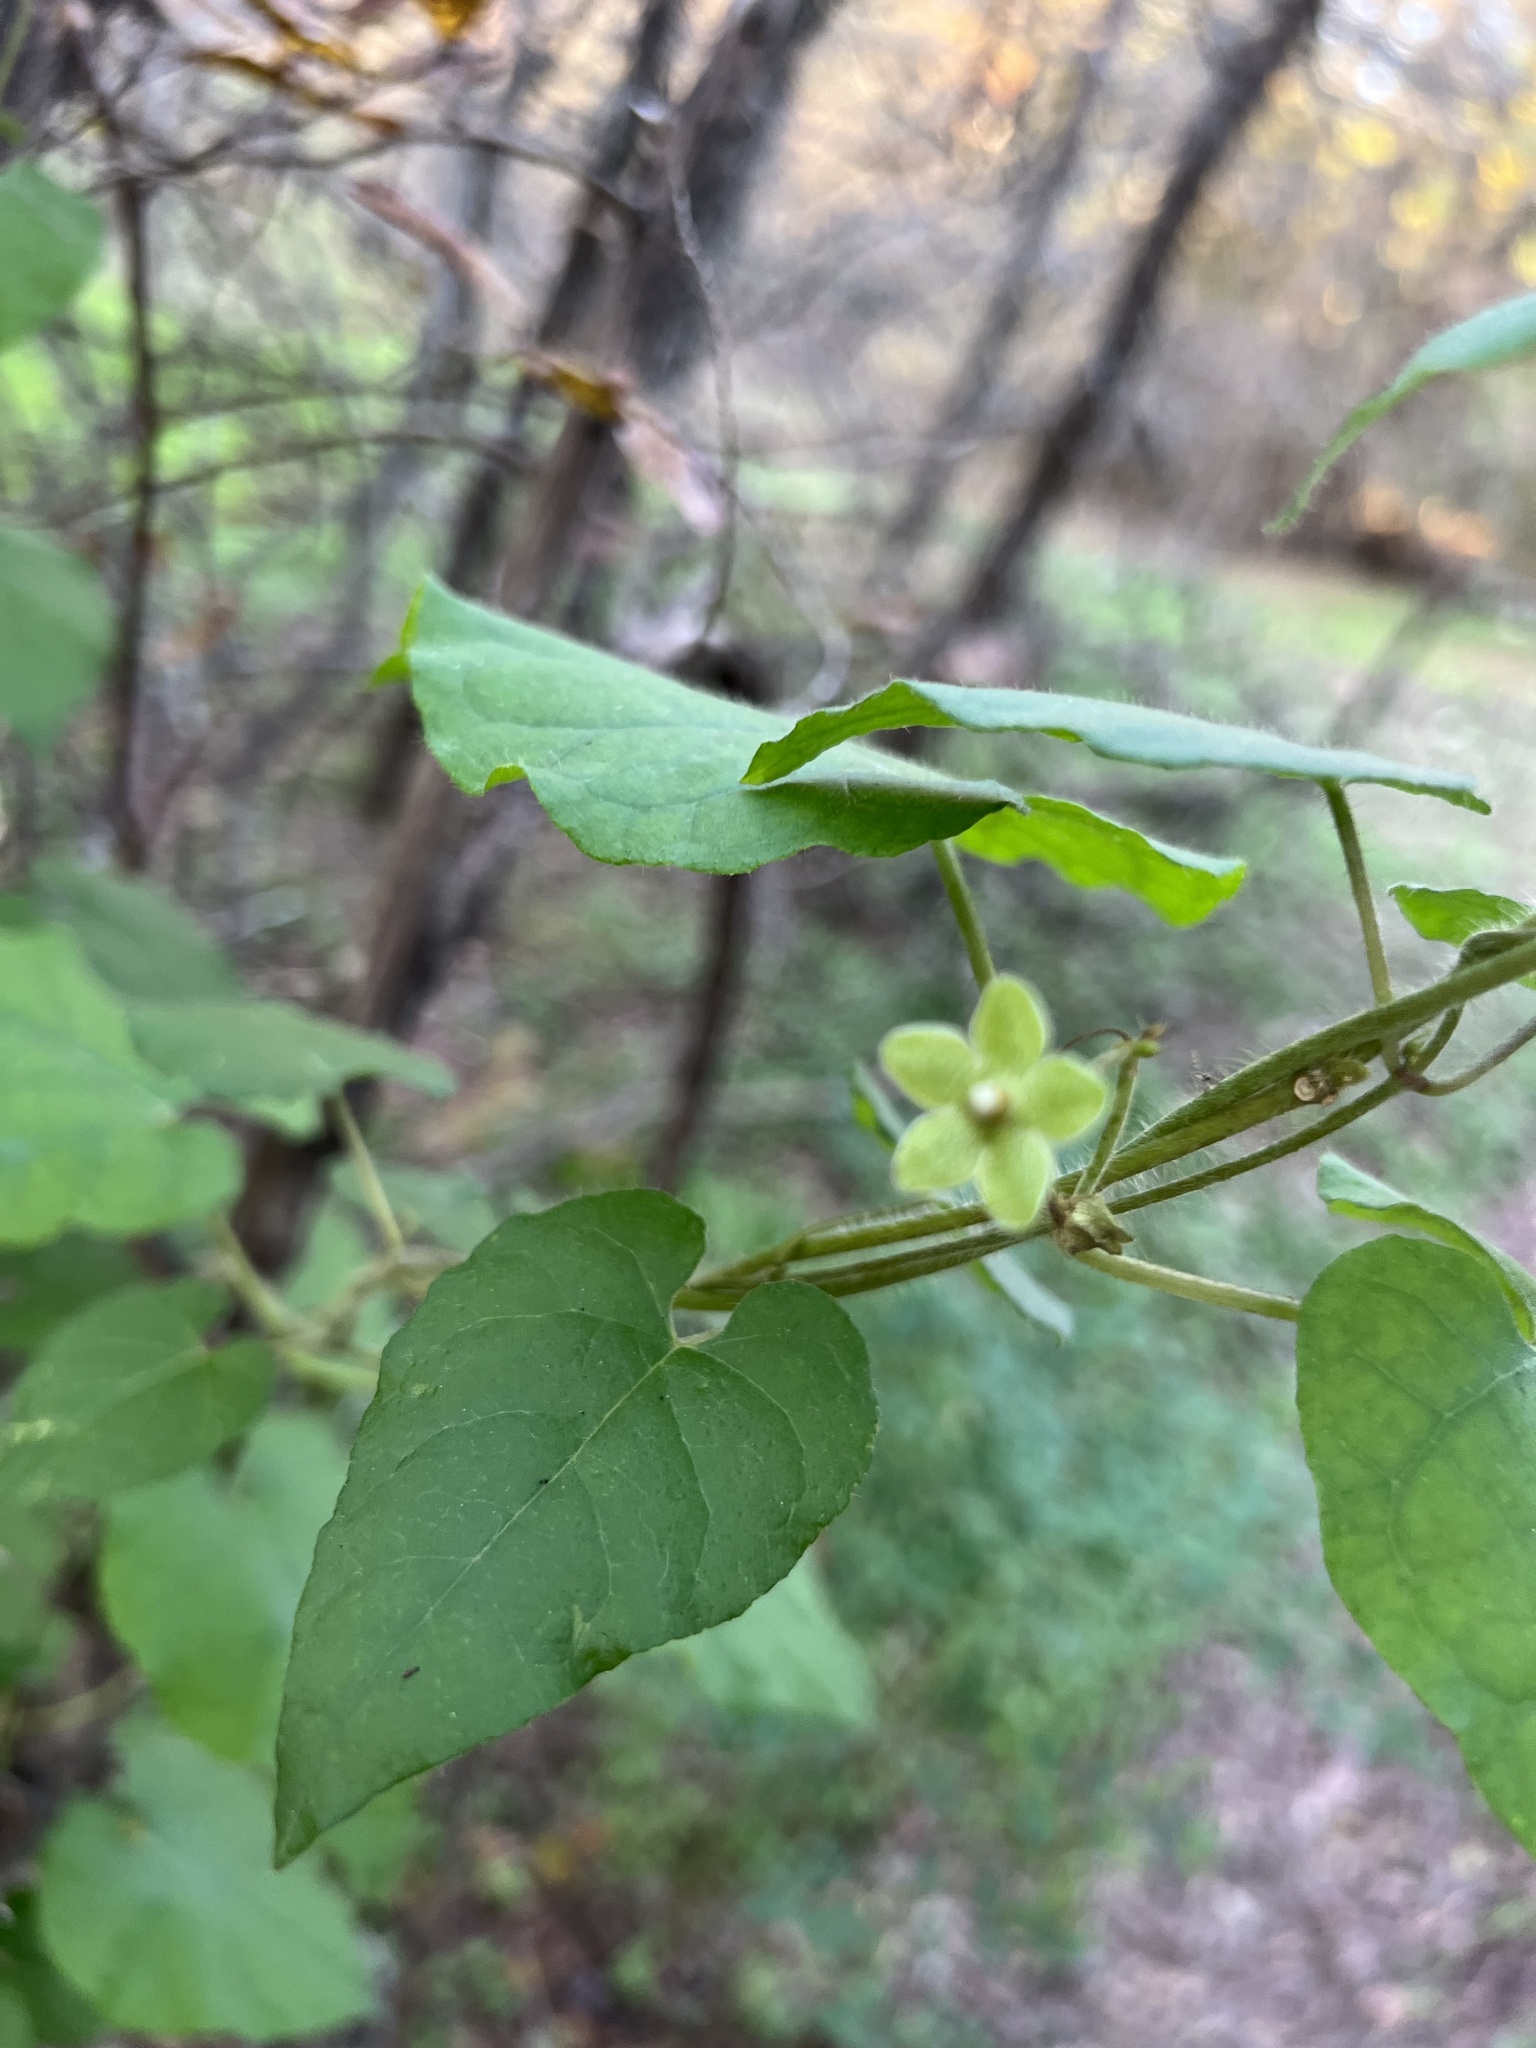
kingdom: Plantae
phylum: Tracheophyta
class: Magnoliopsida
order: Gentianales
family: Apocynaceae
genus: Dictyanthus
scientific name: Dictyanthus reticulatus
